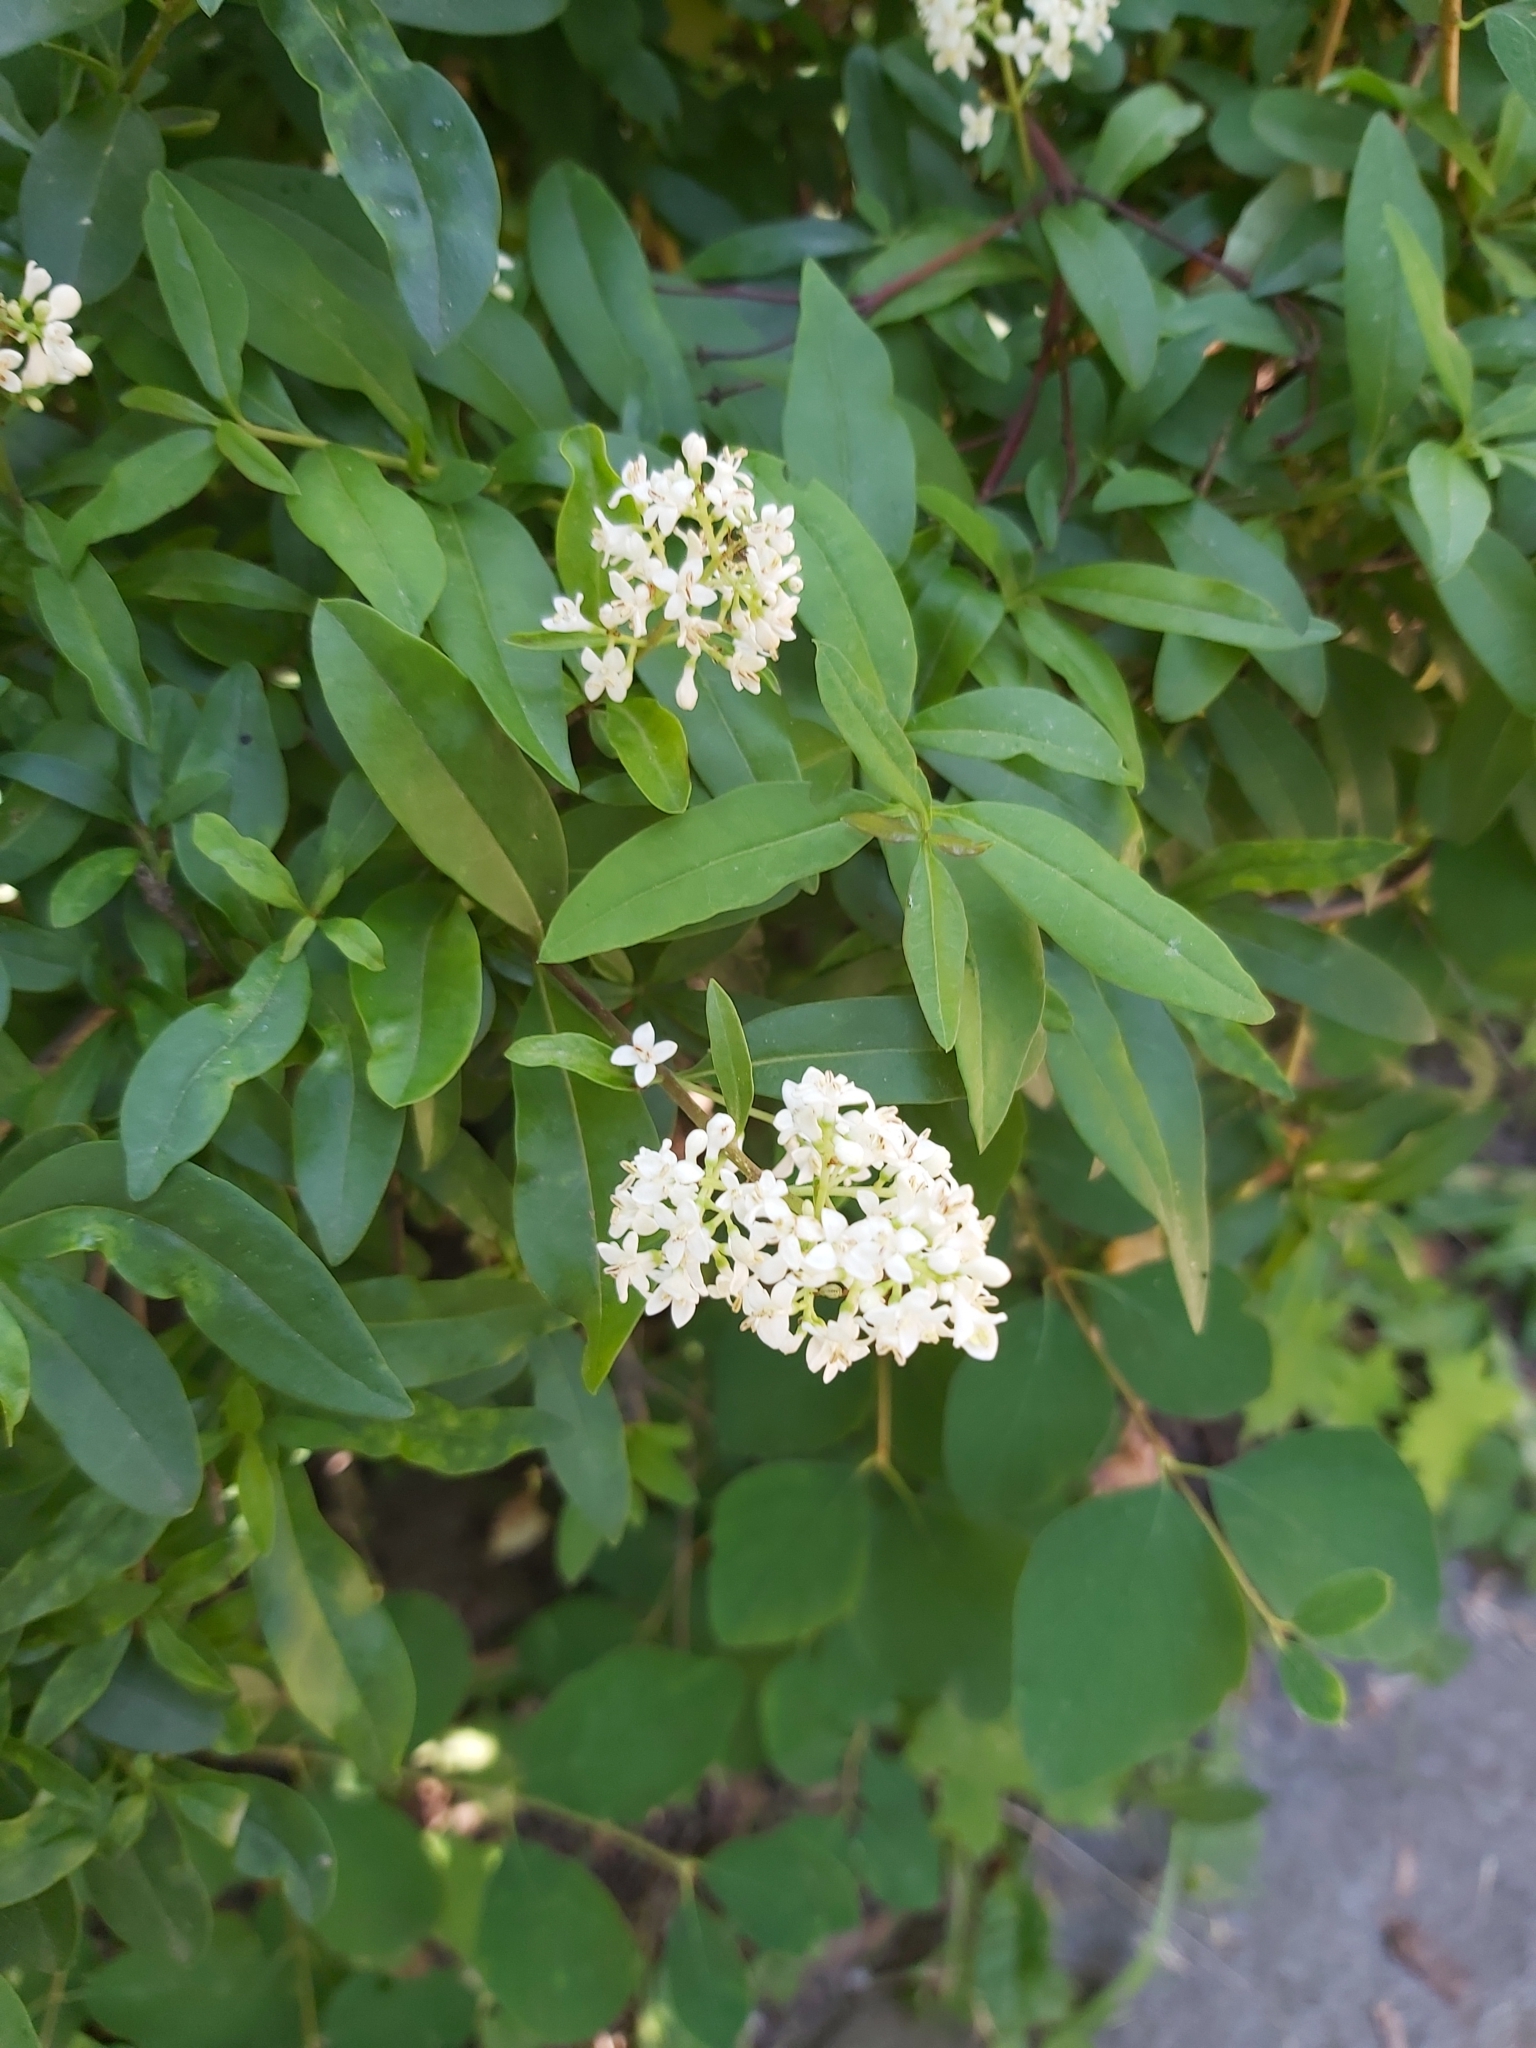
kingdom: Plantae
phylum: Tracheophyta
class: Magnoliopsida
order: Lamiales
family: Oleaceae
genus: Ligustrum
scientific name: Ligustrum vulgare
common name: Wild privet
